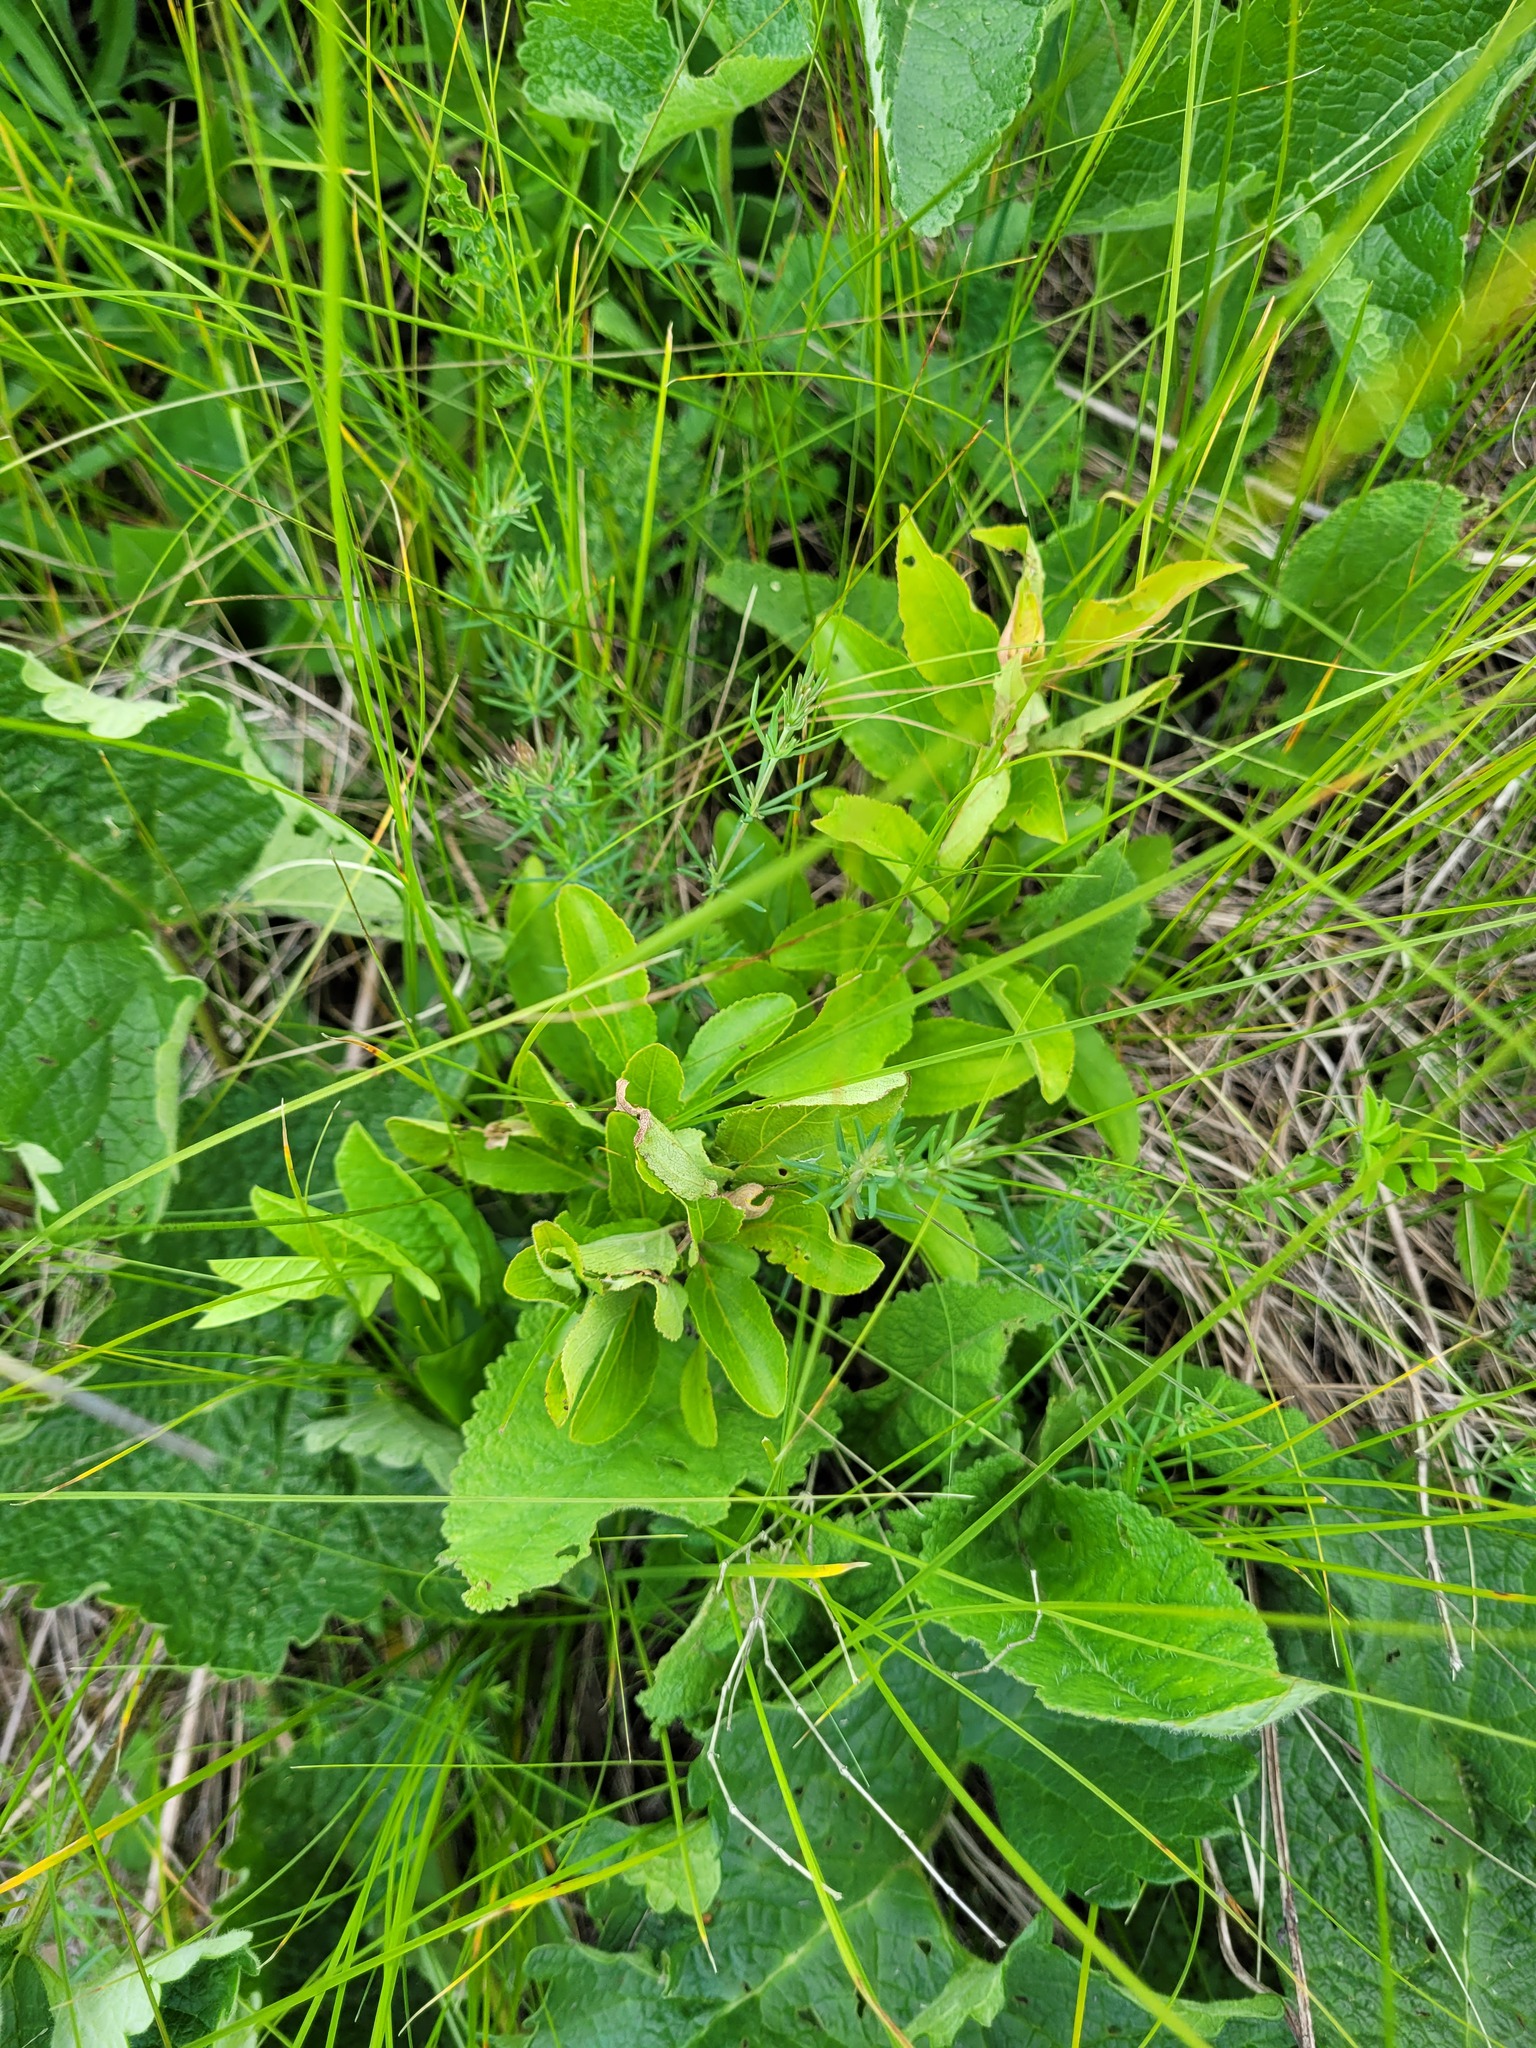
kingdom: Plantae
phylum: Tracheophyta
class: Magnoliopsida
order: Rosales
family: Rhamnaceae
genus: Rhamnus
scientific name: Rhamnus cathartica
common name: Common buckthorn
